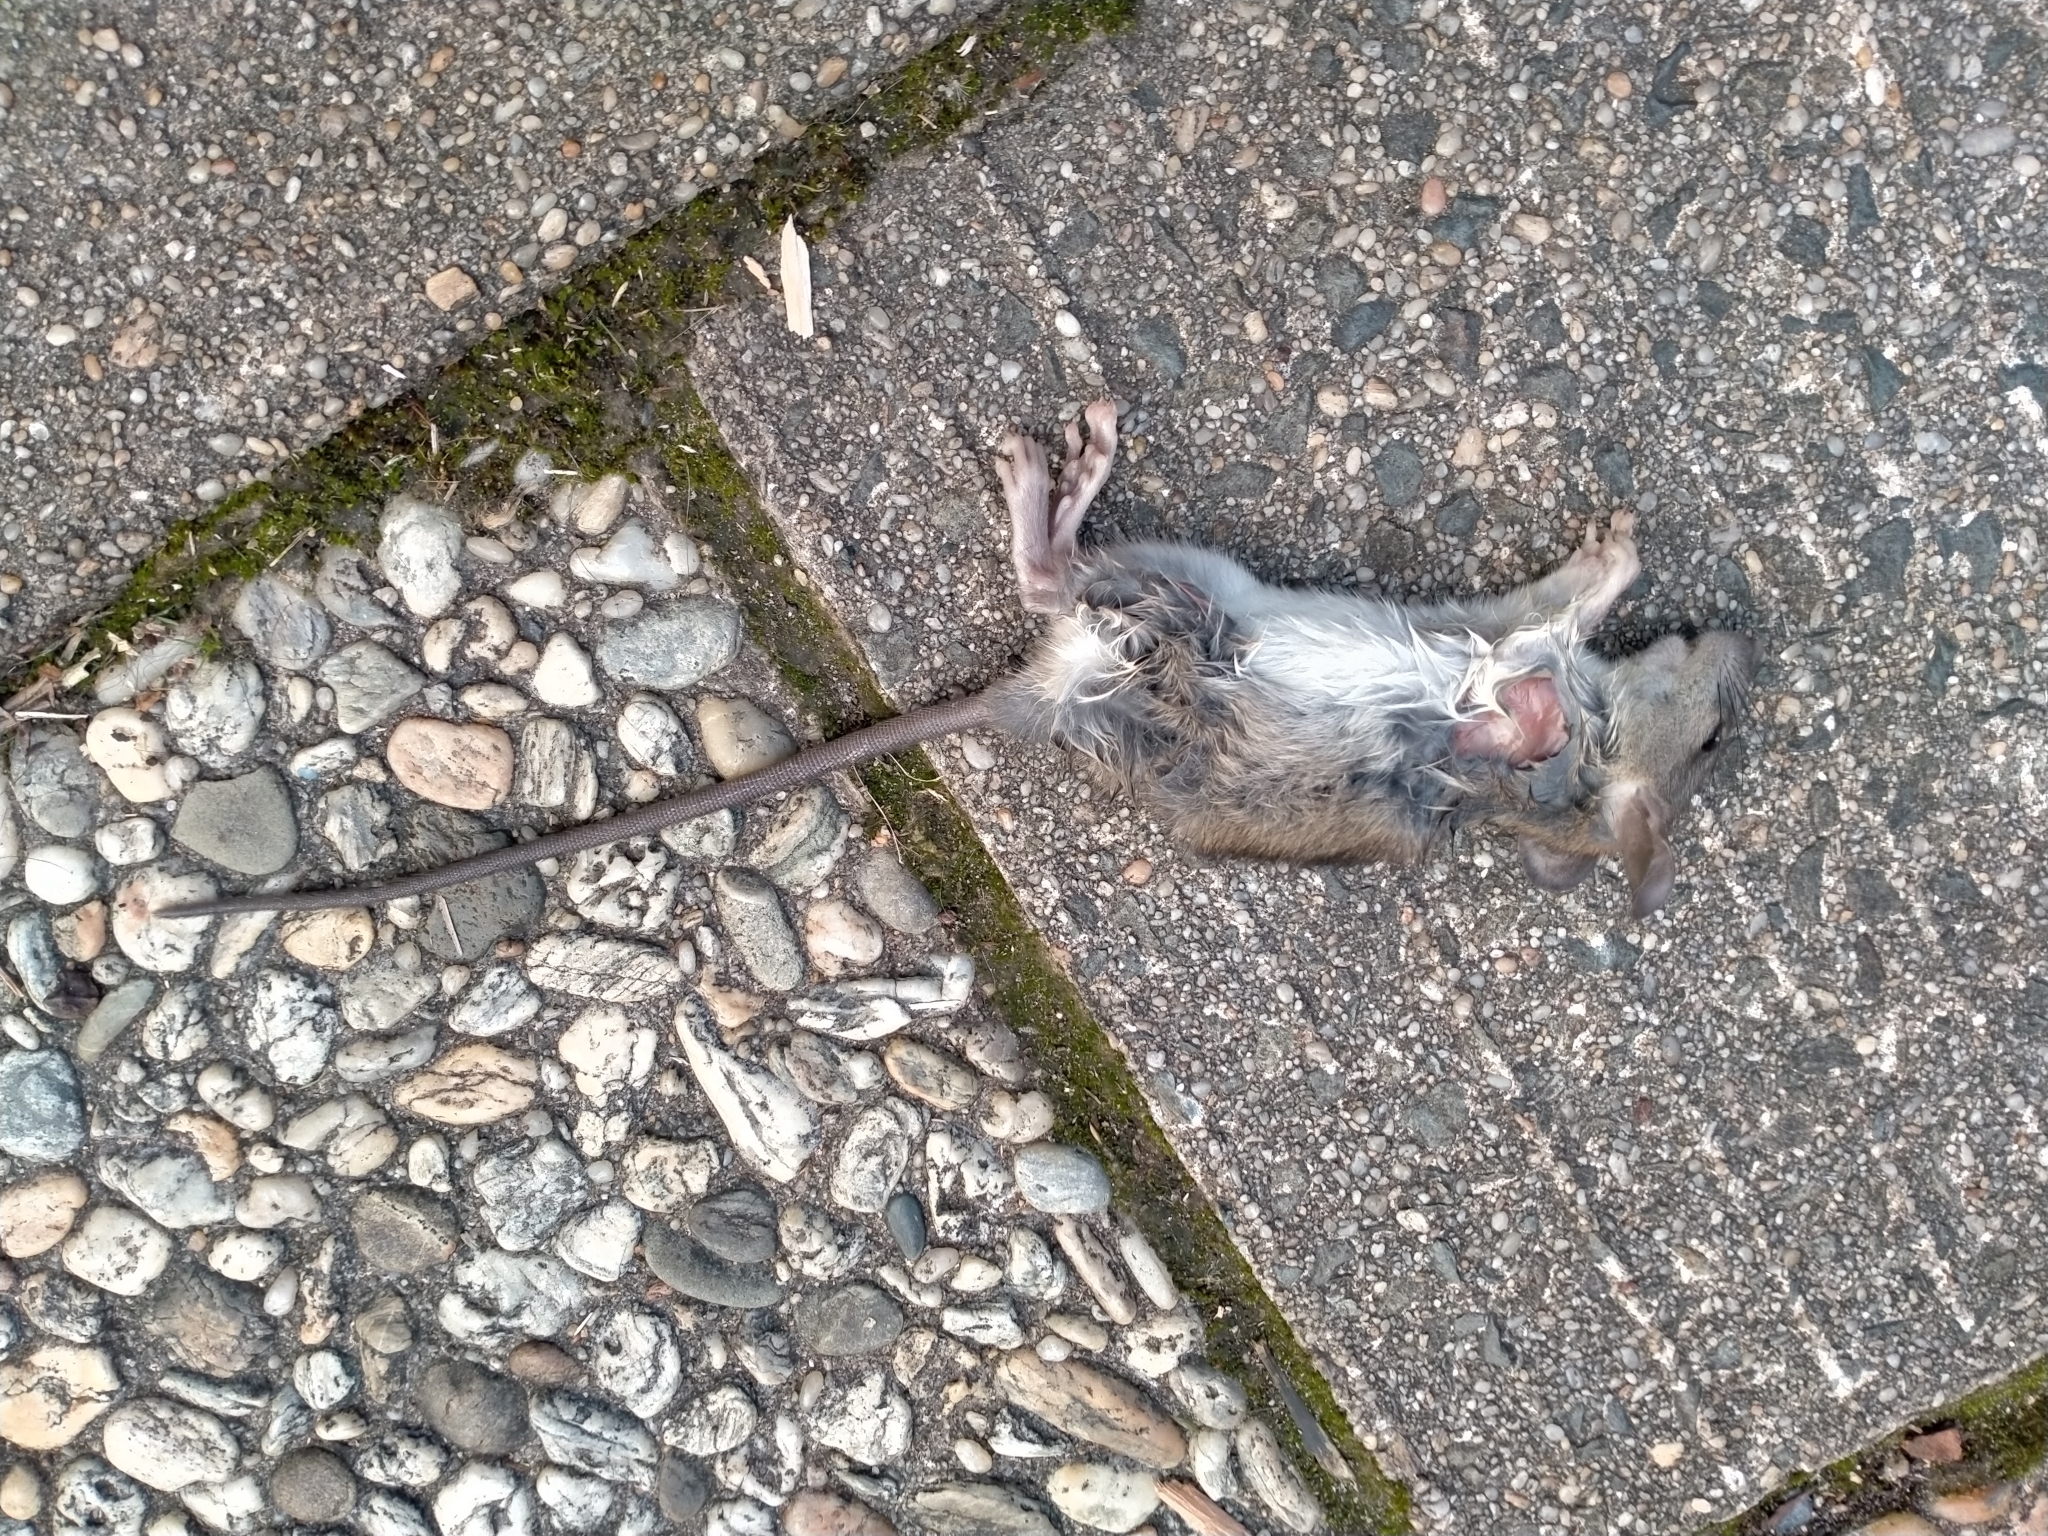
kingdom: Animalia
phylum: Chordata
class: Mammalia
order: Rodentia
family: Muridae
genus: Rattus
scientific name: Rattus rattus
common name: Black rat
